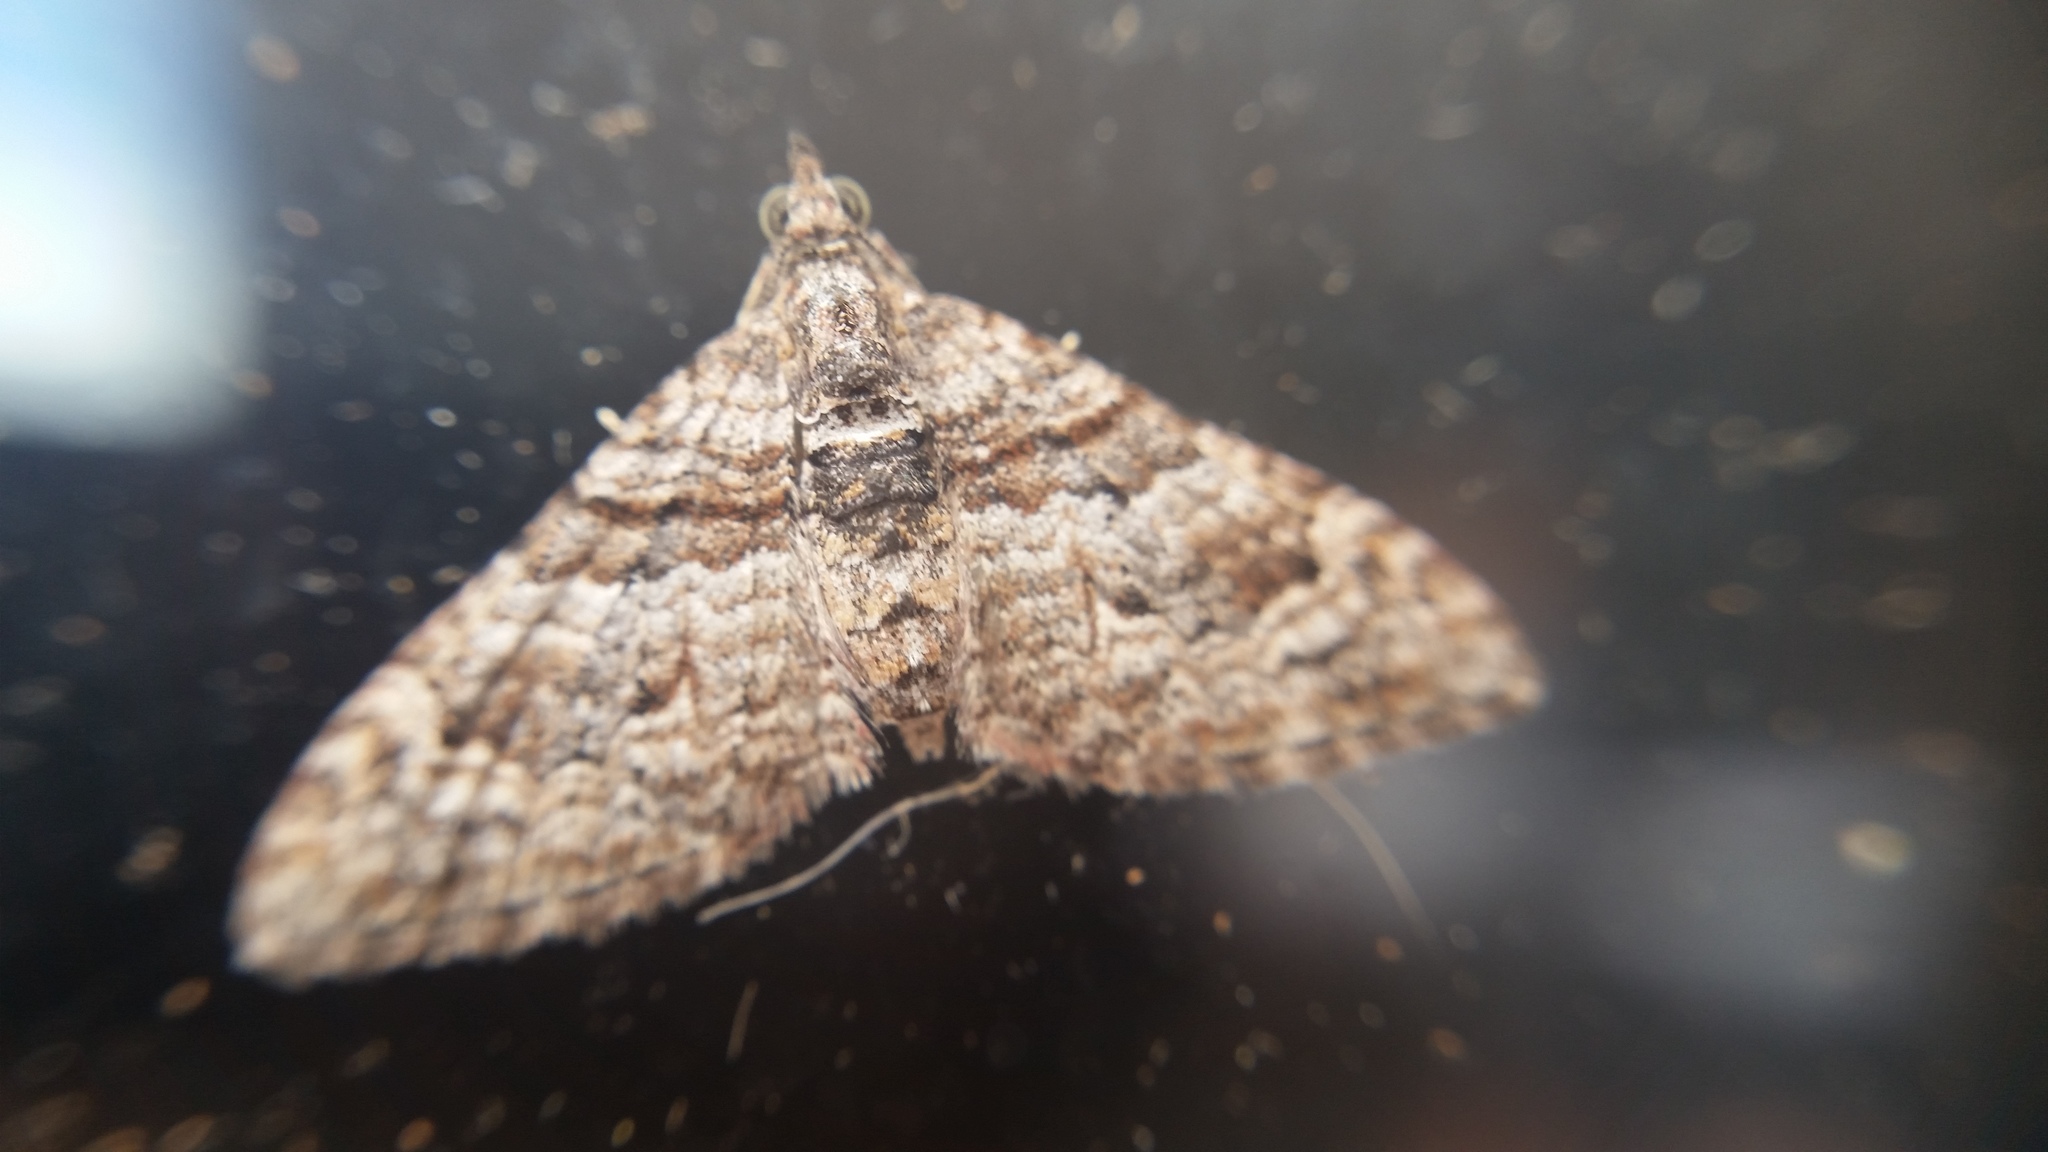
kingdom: Animalia
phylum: Arthropoda
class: Insecta
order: Lepidoptera
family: Geometridae
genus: Phrissogonus
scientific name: Phrissogonus laticostata
